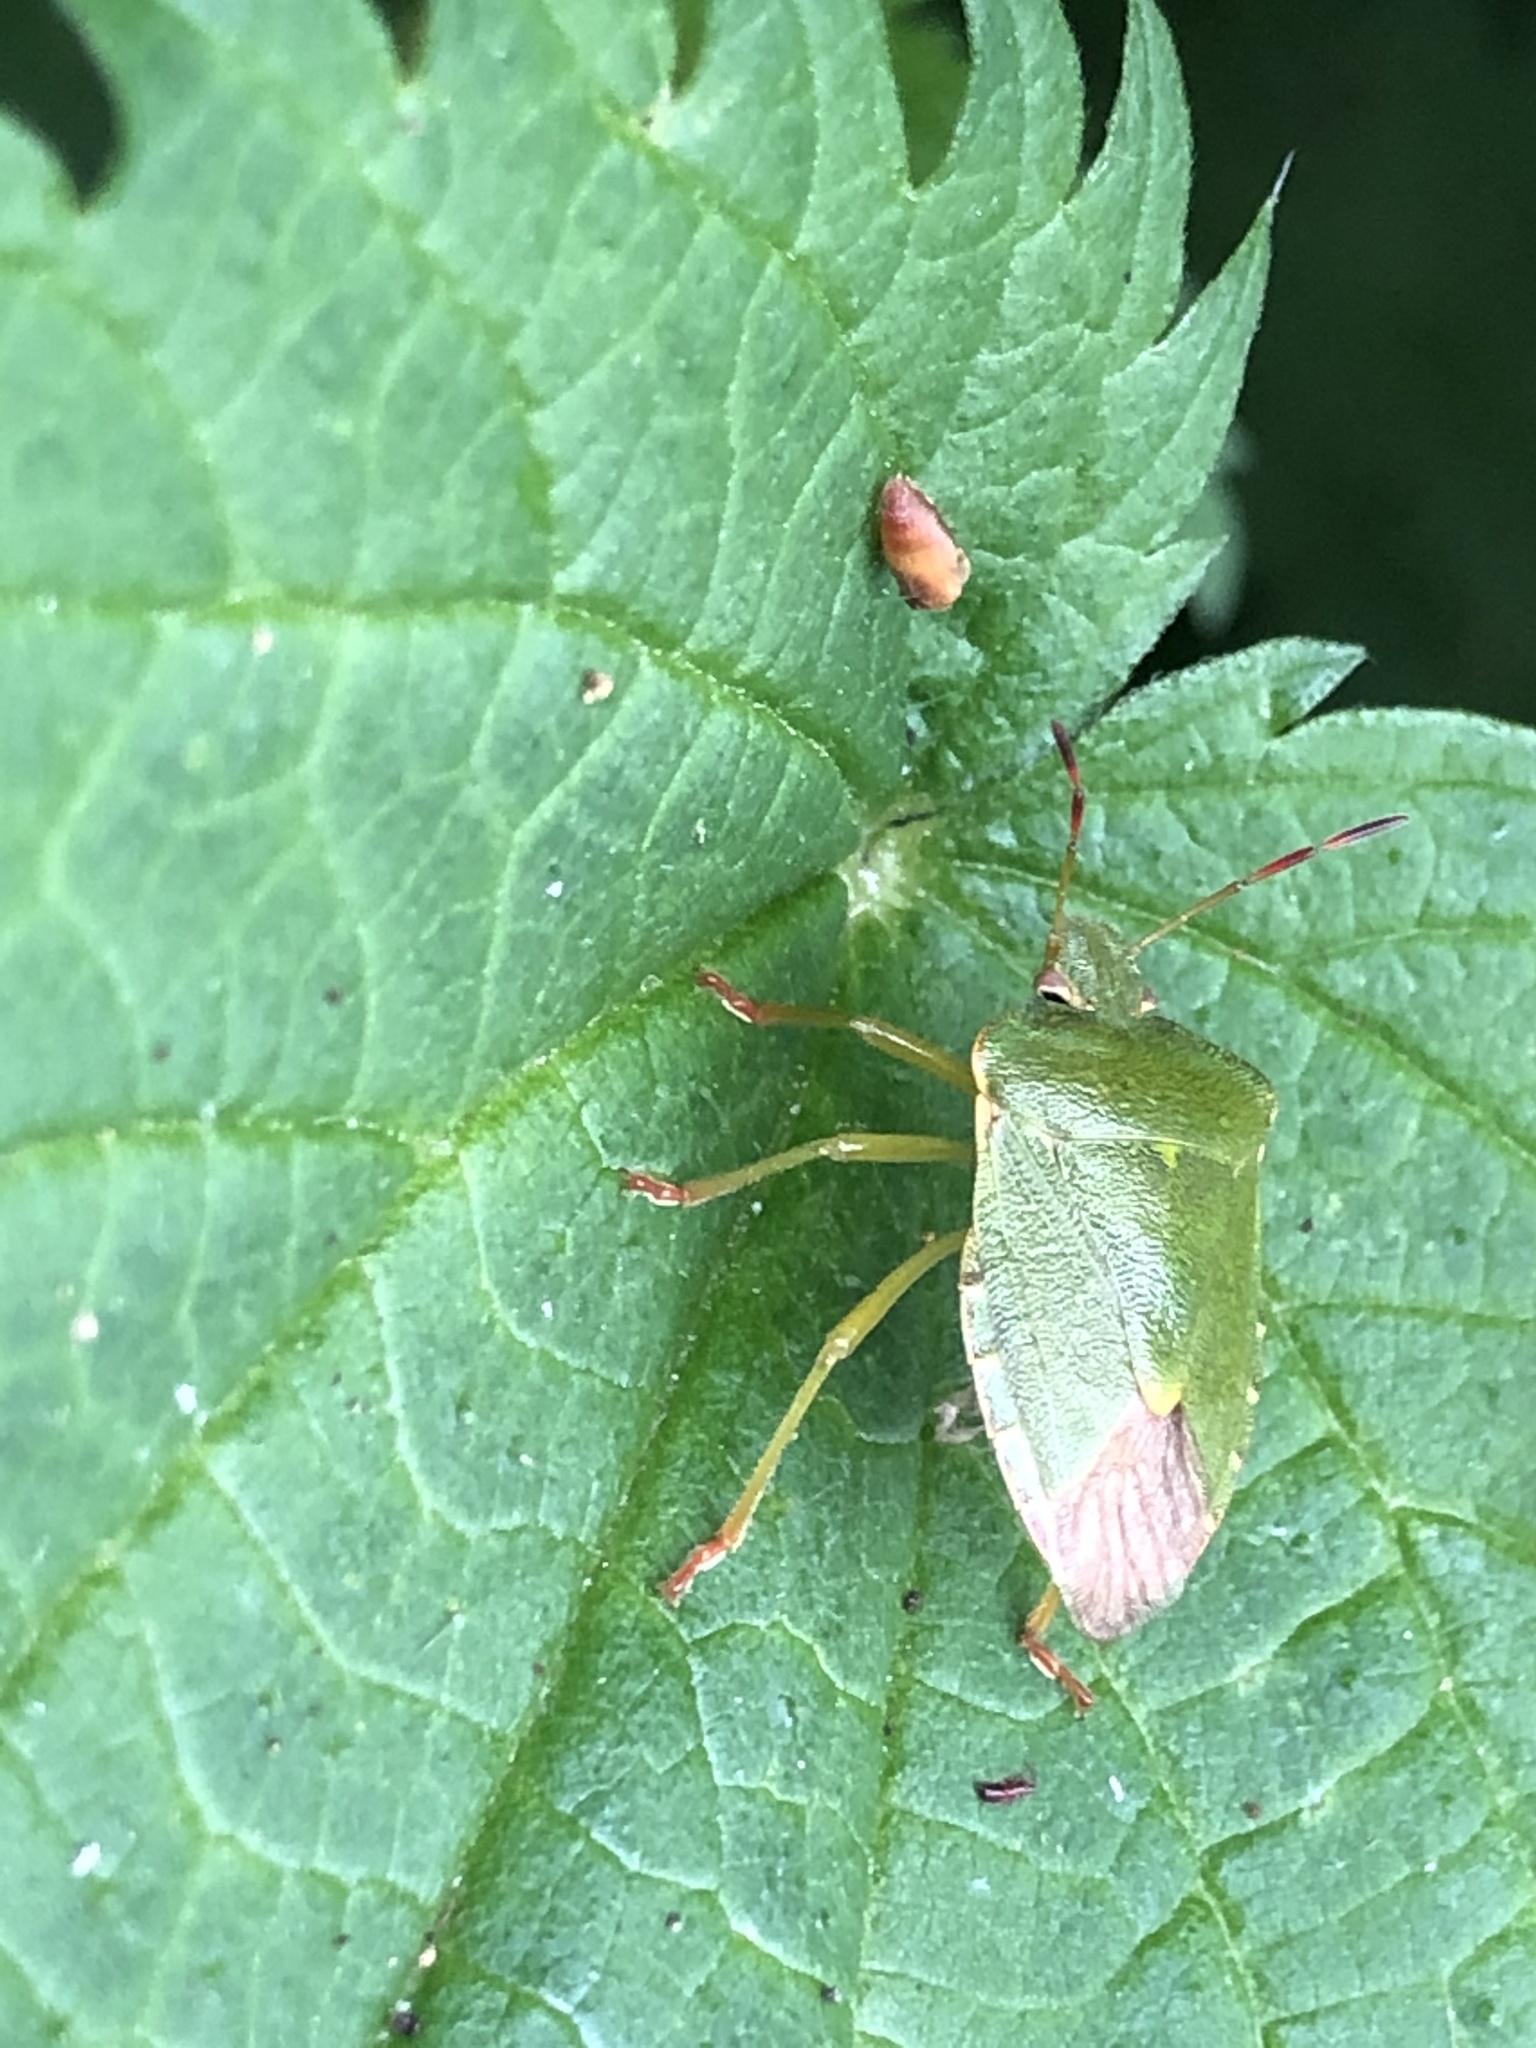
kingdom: Animalia
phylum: Arthropoda
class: Insecta
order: Hemiptera
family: Pentatomidae
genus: Palomena
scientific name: Palomena prasina
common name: Green shieldbug
